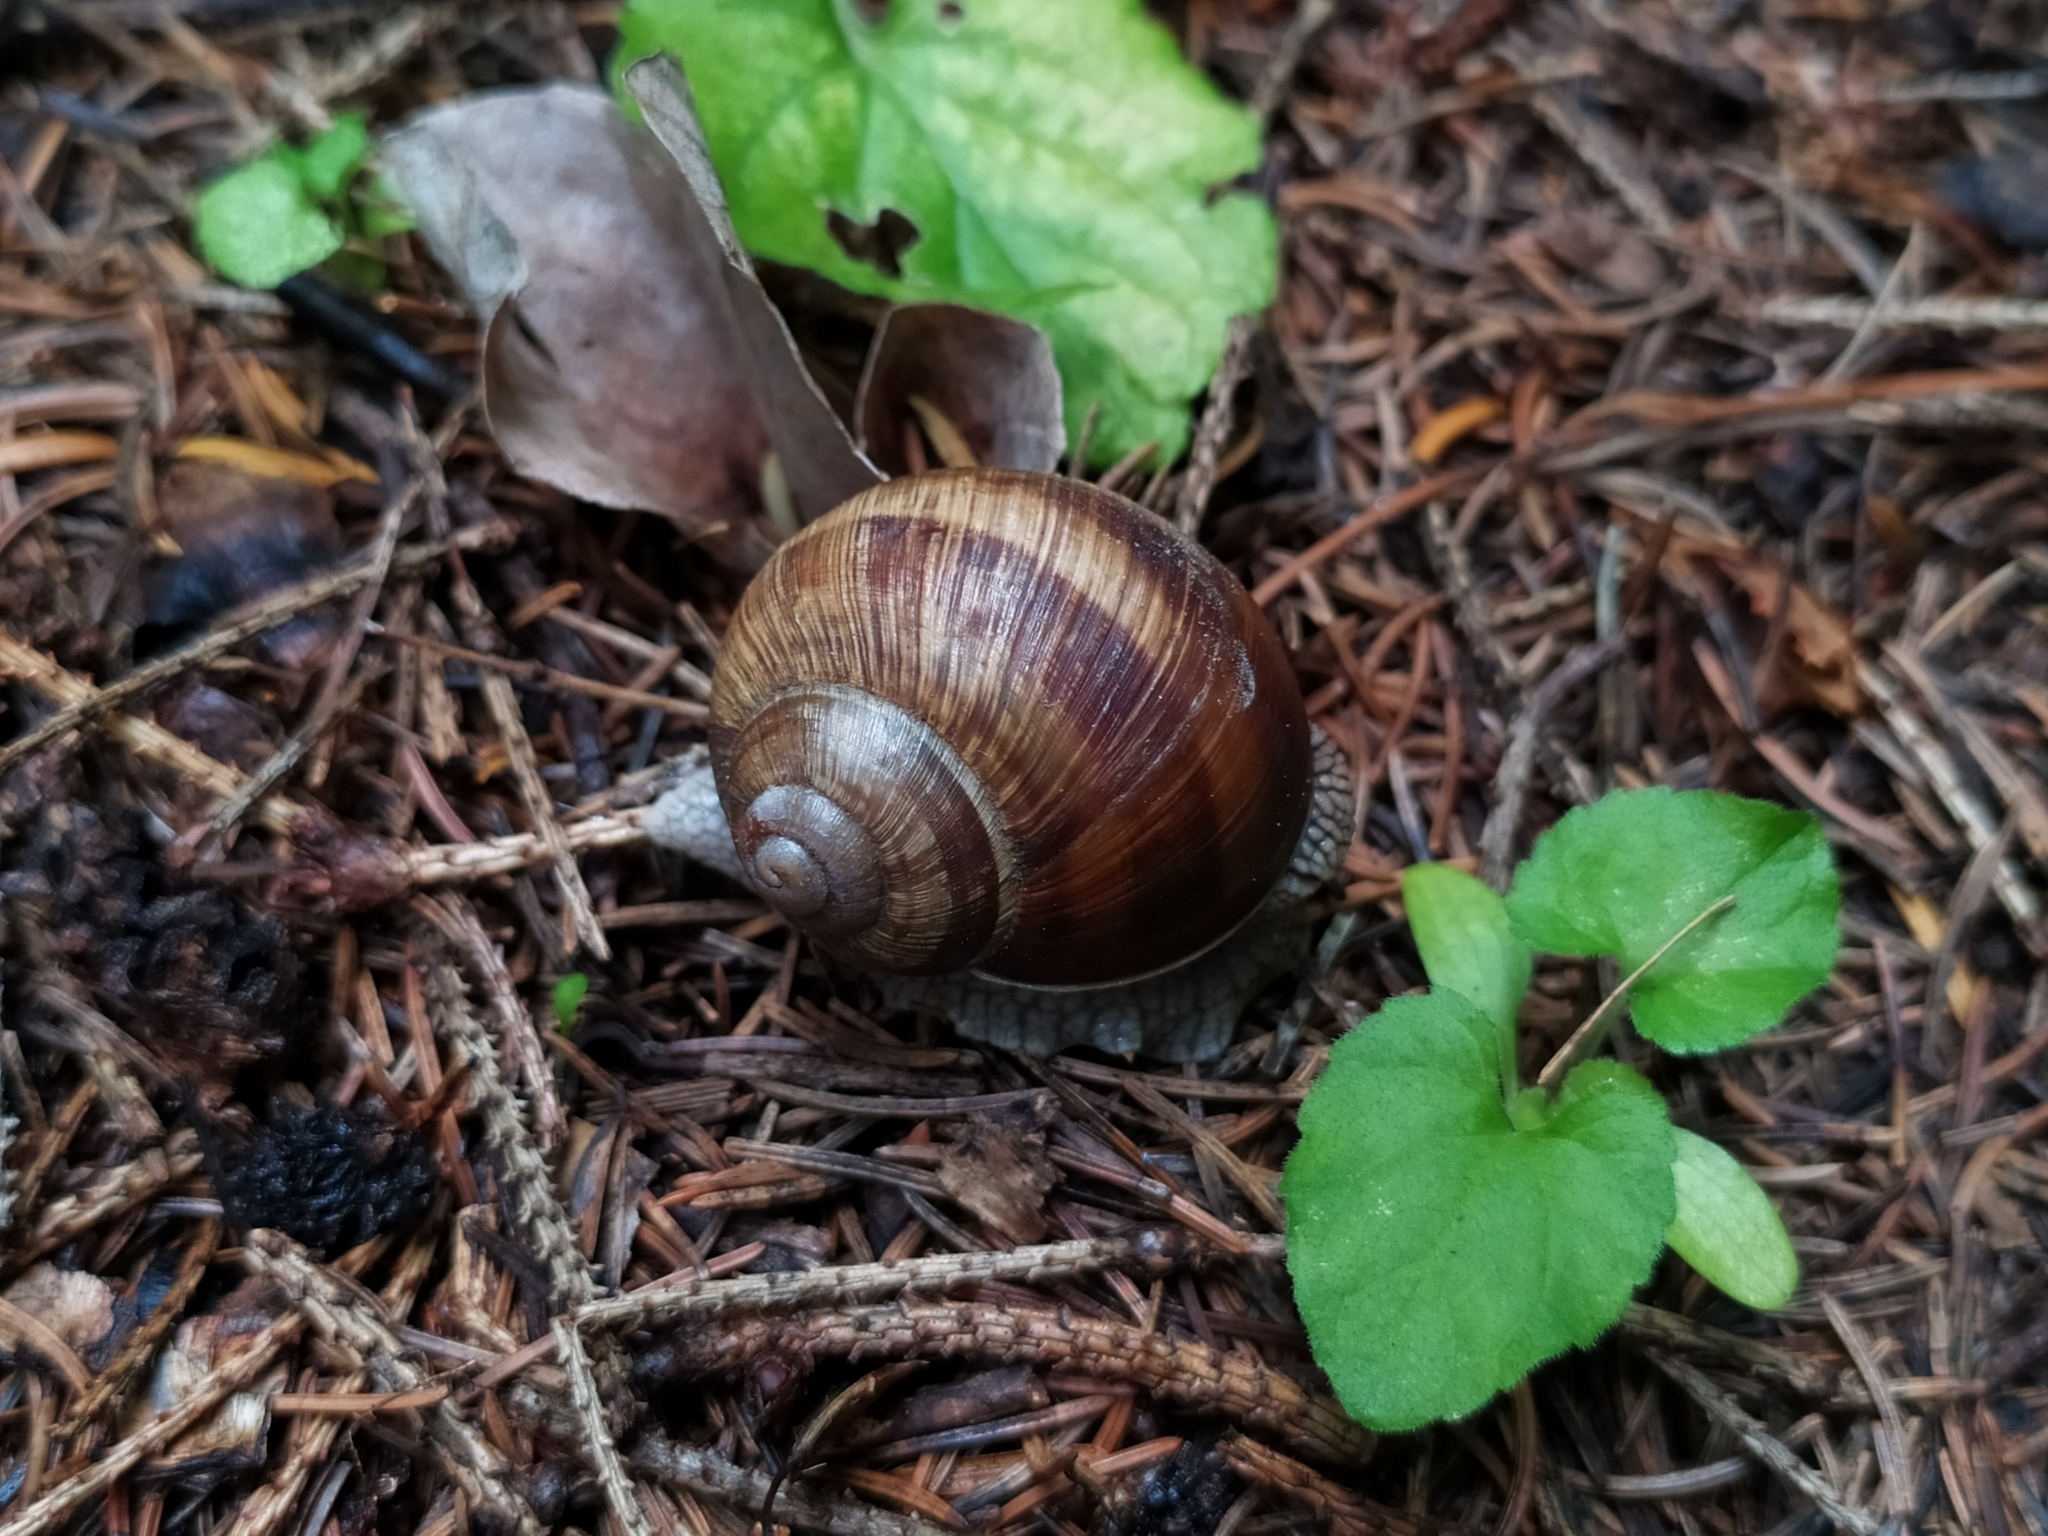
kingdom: Animalia
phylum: Mollusca
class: Gastropoda
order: Stylommatophora
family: Helicidae
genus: Helix
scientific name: Helix pomatia
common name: Roman snail
